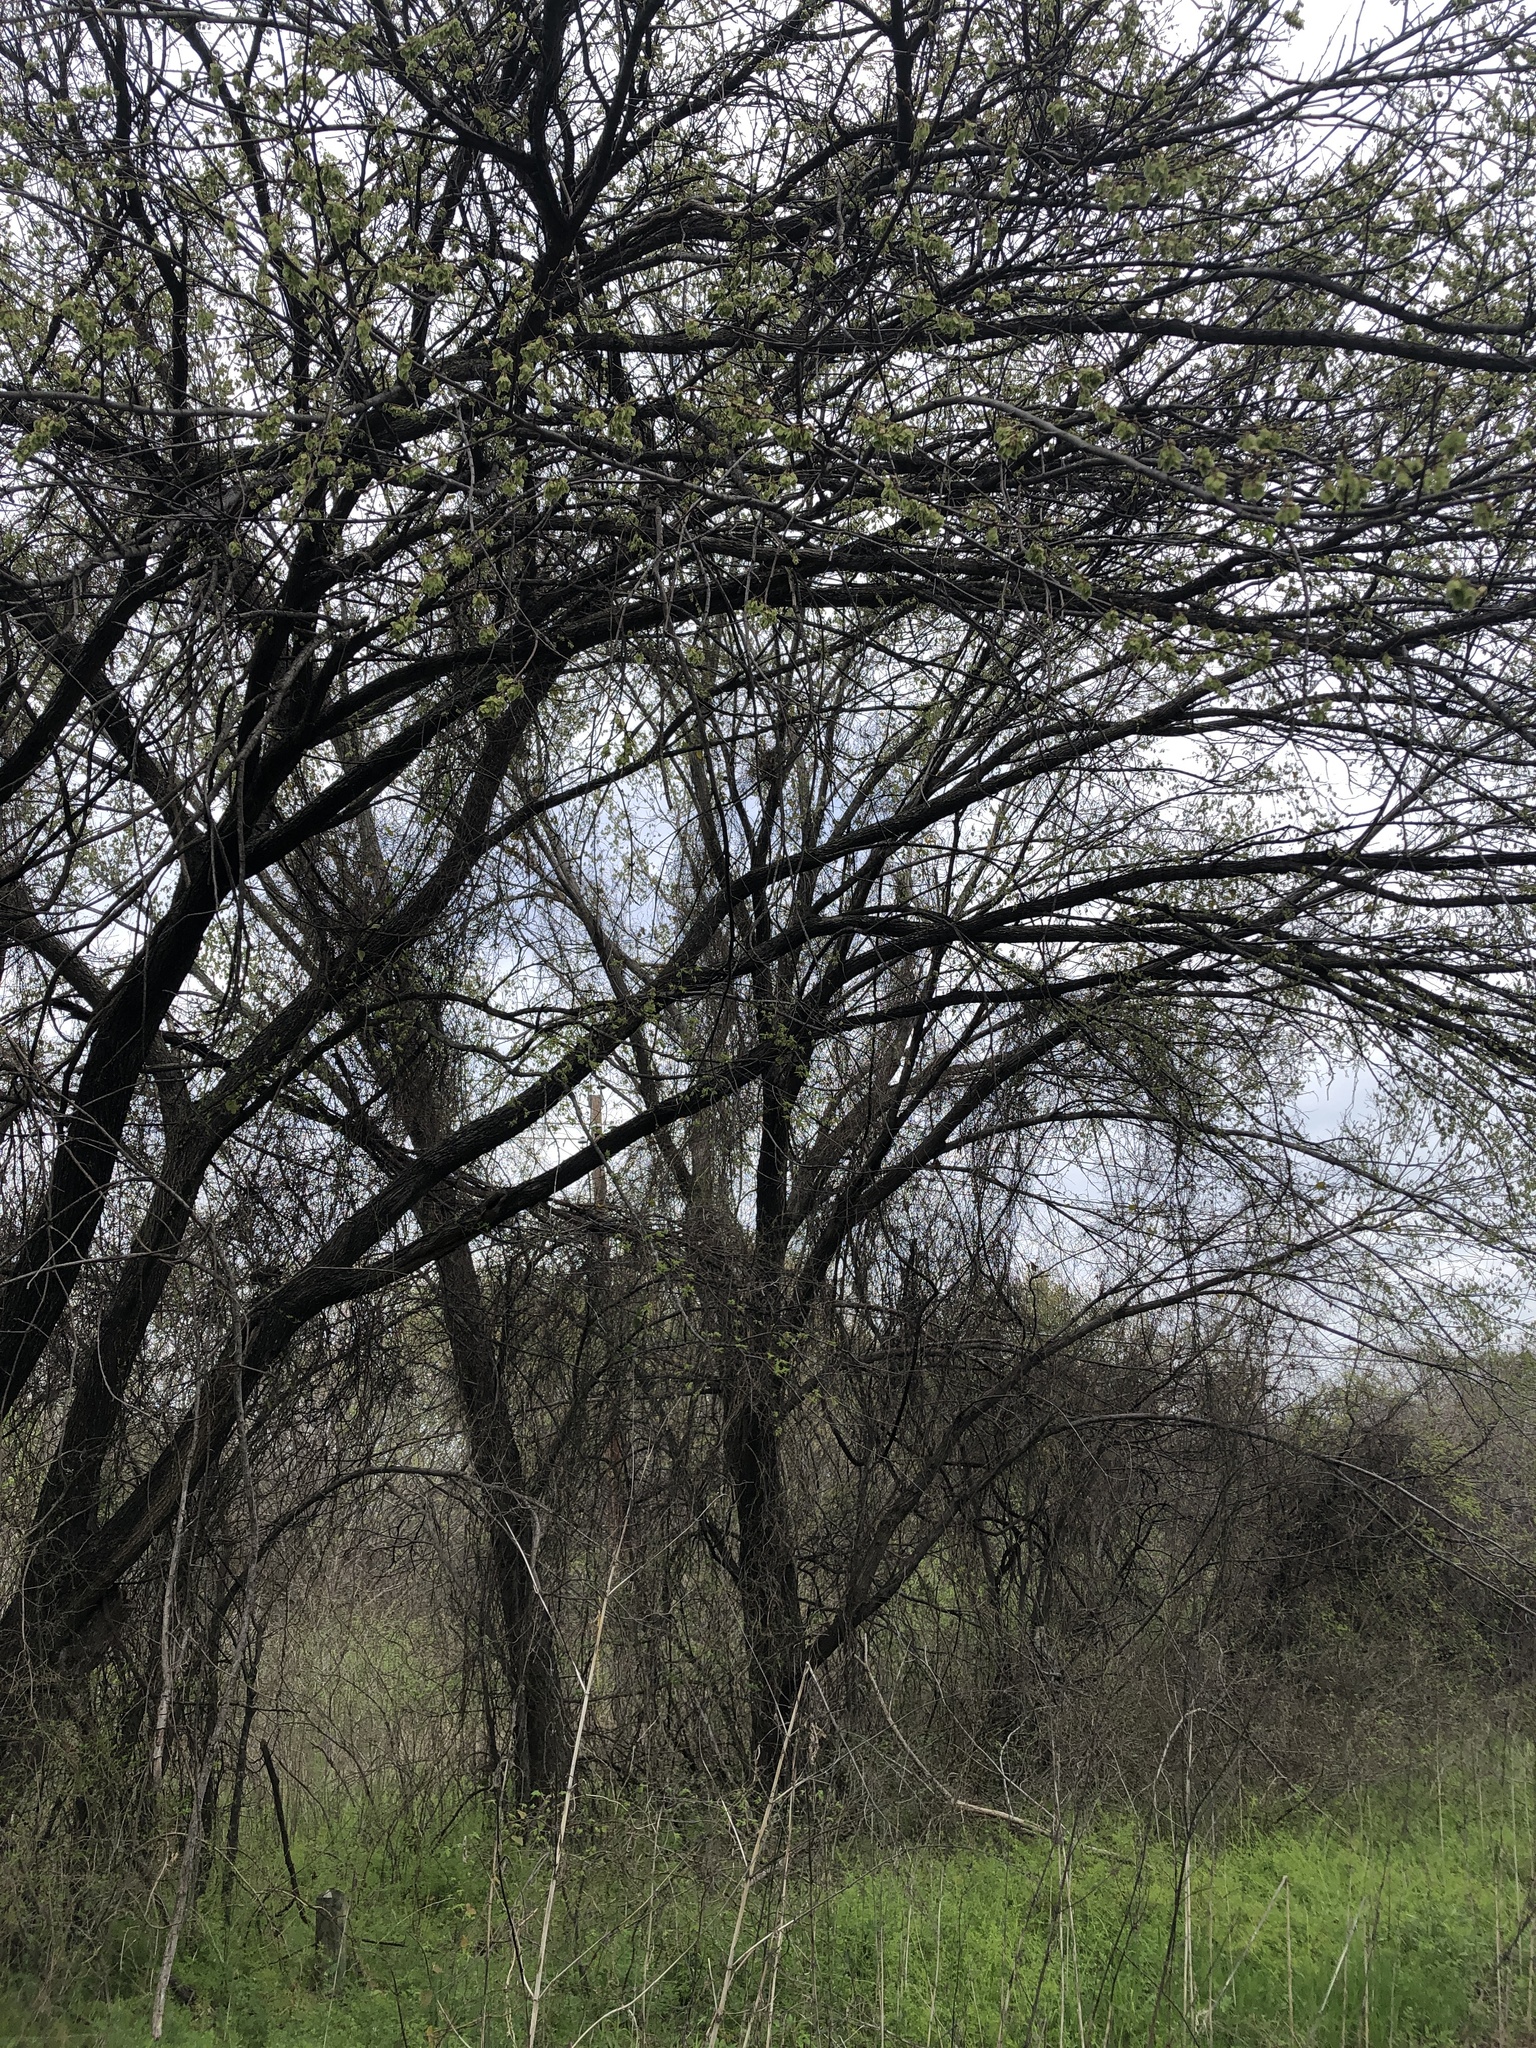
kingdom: Plantae
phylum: Tracheophyta
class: Magnoliopsida
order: Rosales
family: Ulmaceae
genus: Ulmus
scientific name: Ulmus americana
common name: American elm
